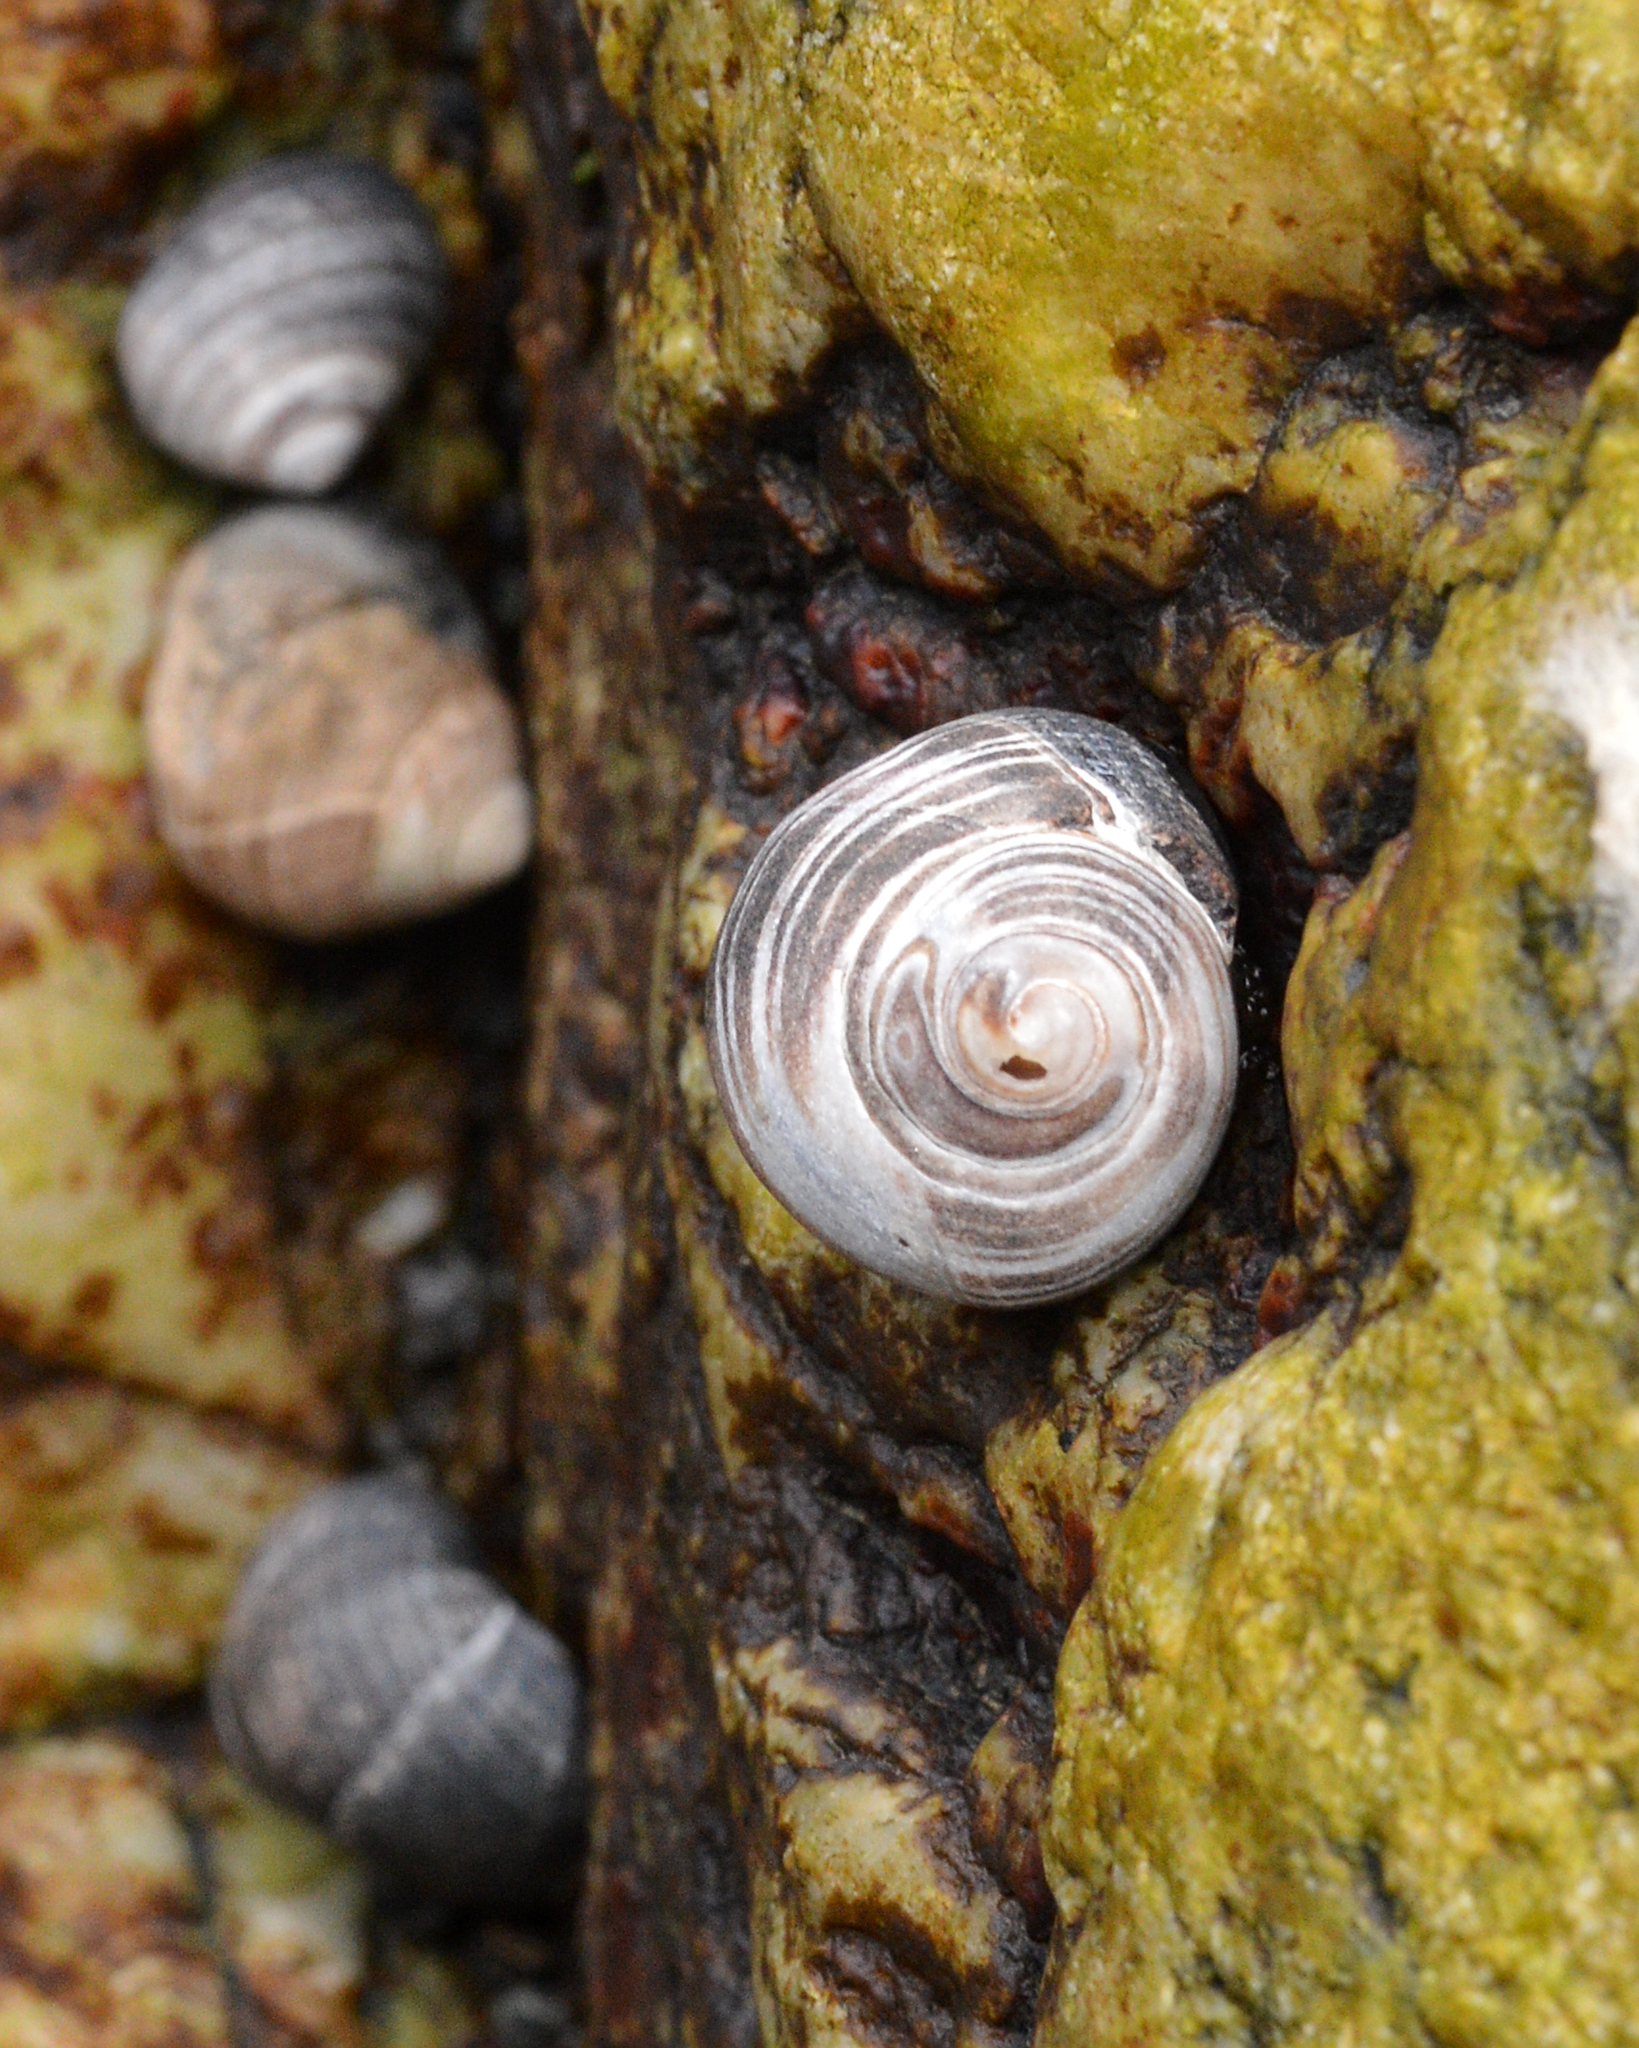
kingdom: Animalia
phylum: Mollusca
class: Gastropoda
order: Littorinimorpha
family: Littorinidae
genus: Littorina
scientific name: Littorina littorea
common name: Common periwinkle
